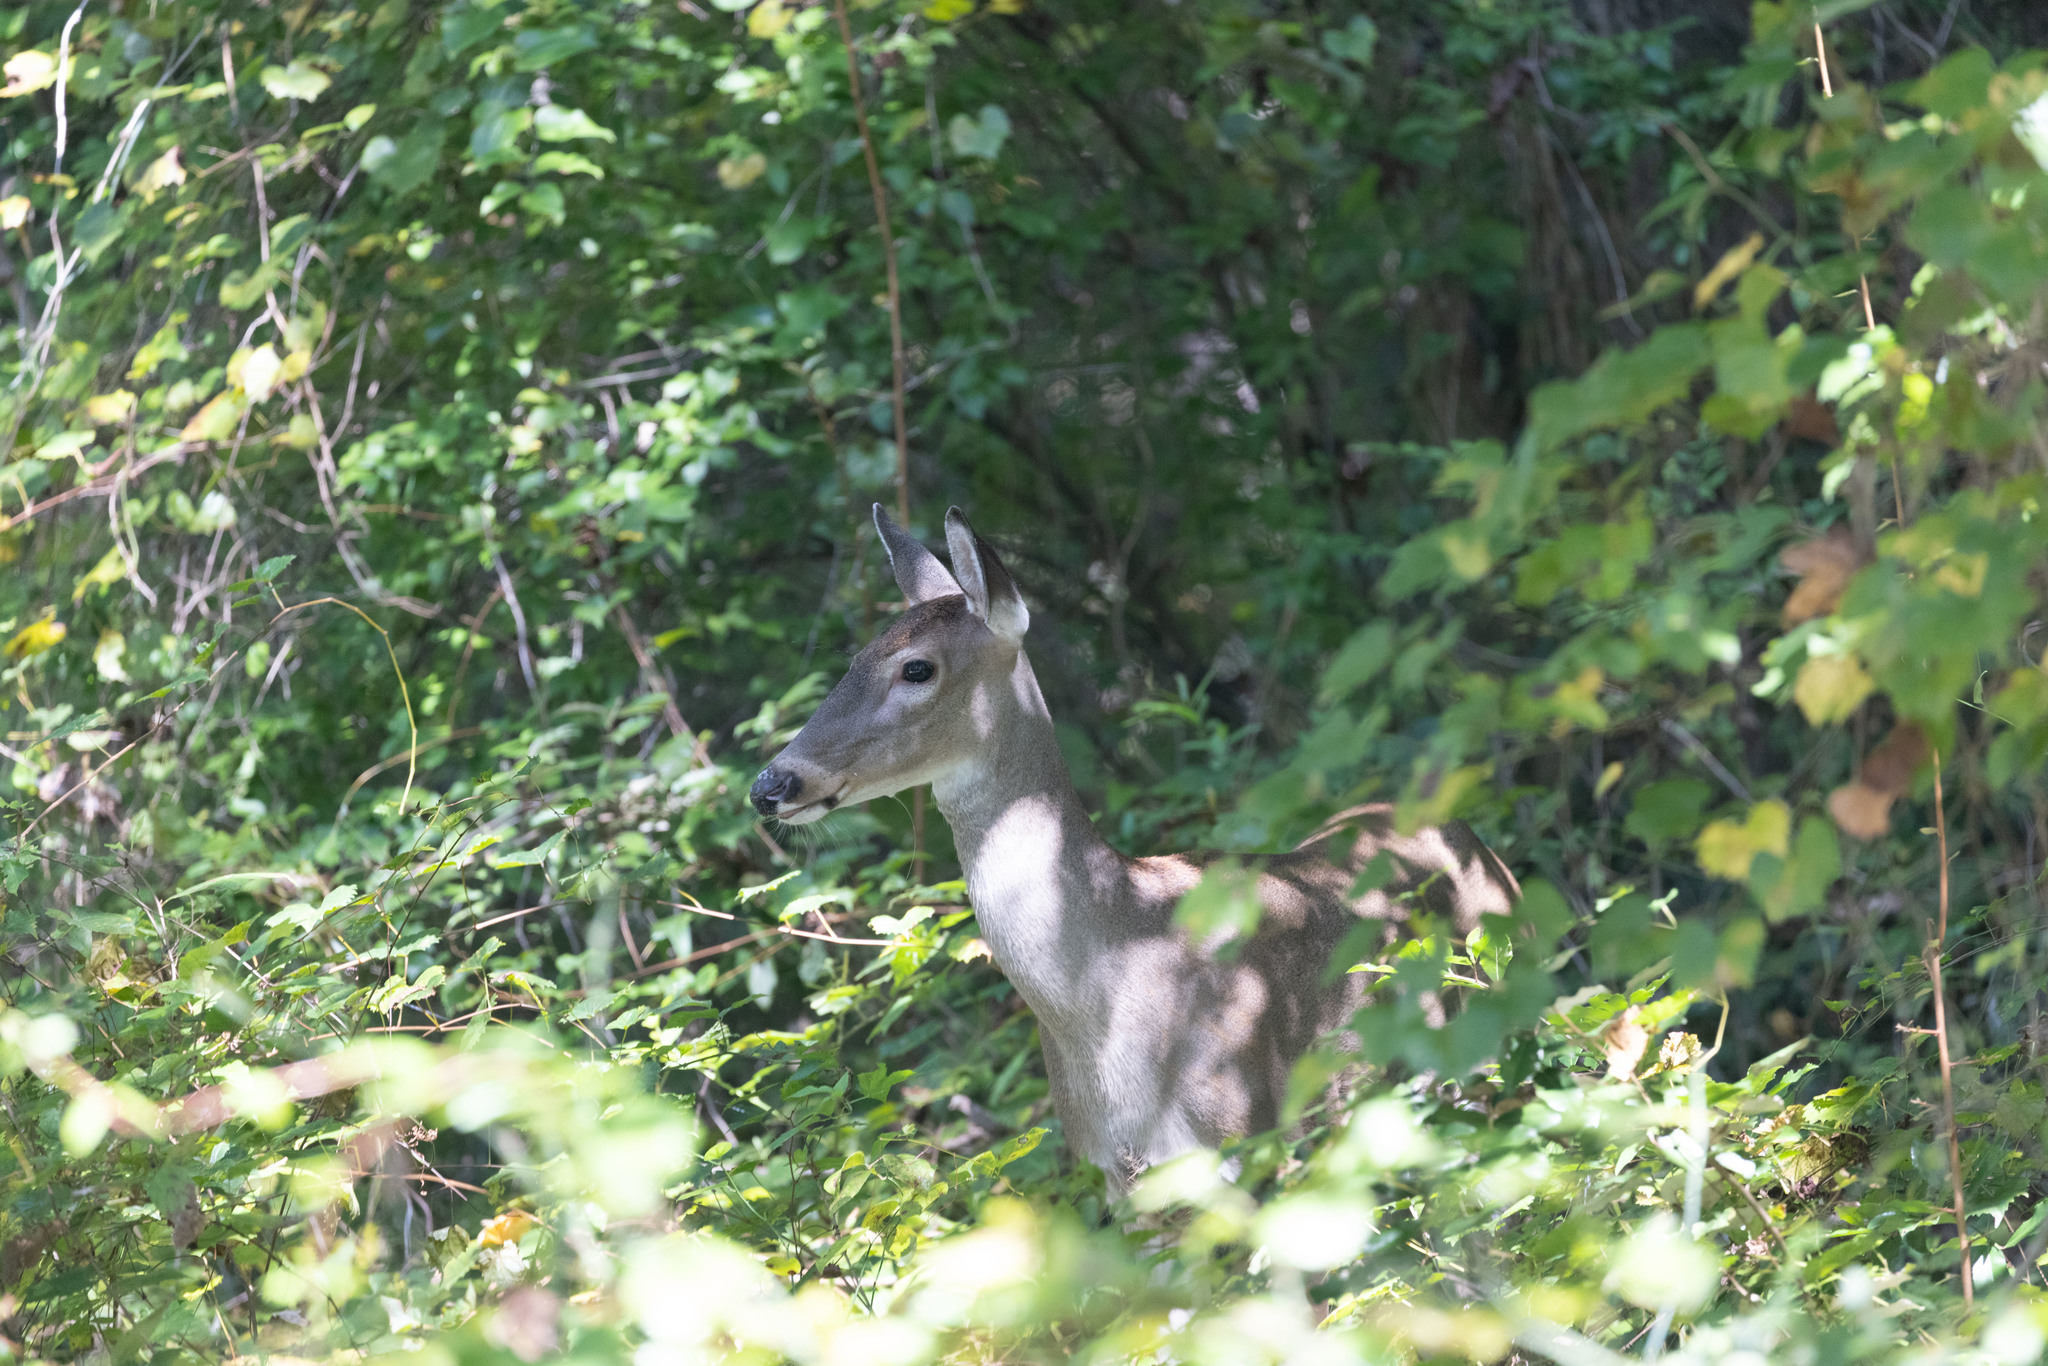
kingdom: Animalia
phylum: Chordata
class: Mammalia
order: Artiodactyla
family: Cervidae
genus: Odocoileus
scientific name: Odocoileus virginianus
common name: White-tailed deer
